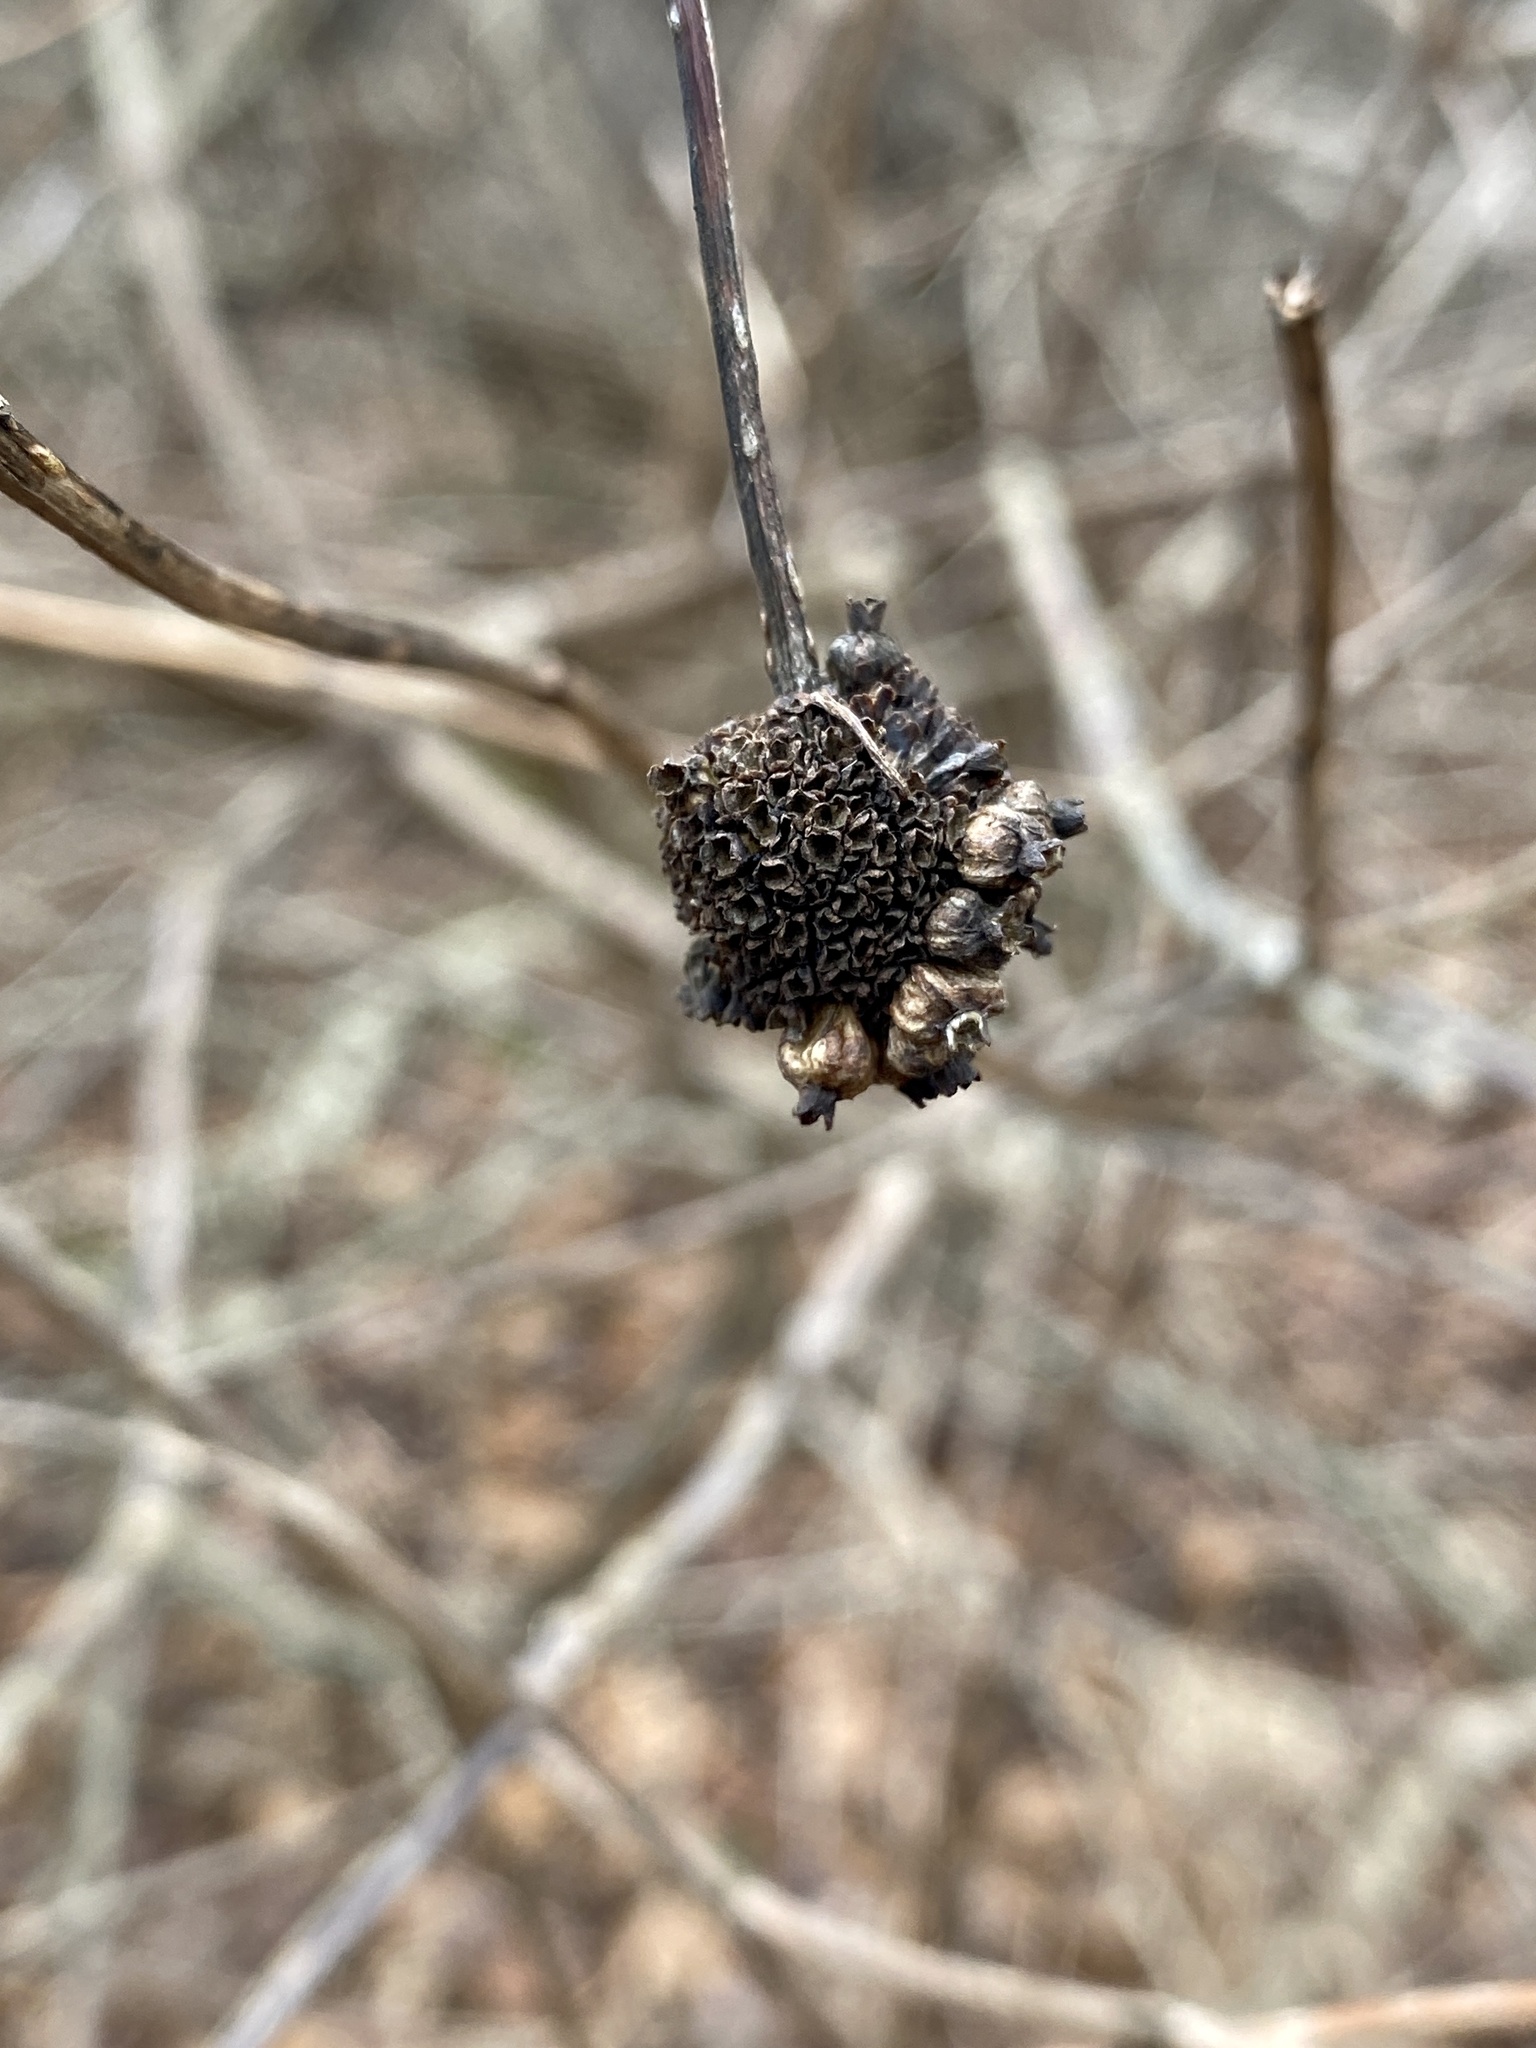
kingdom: Plantae
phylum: Tracheophyta
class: Magnoliopsida
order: Gentianales
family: Rubiaceae
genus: Cephalanthus
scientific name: Cephalanthus occidentalis
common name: Button-willow
